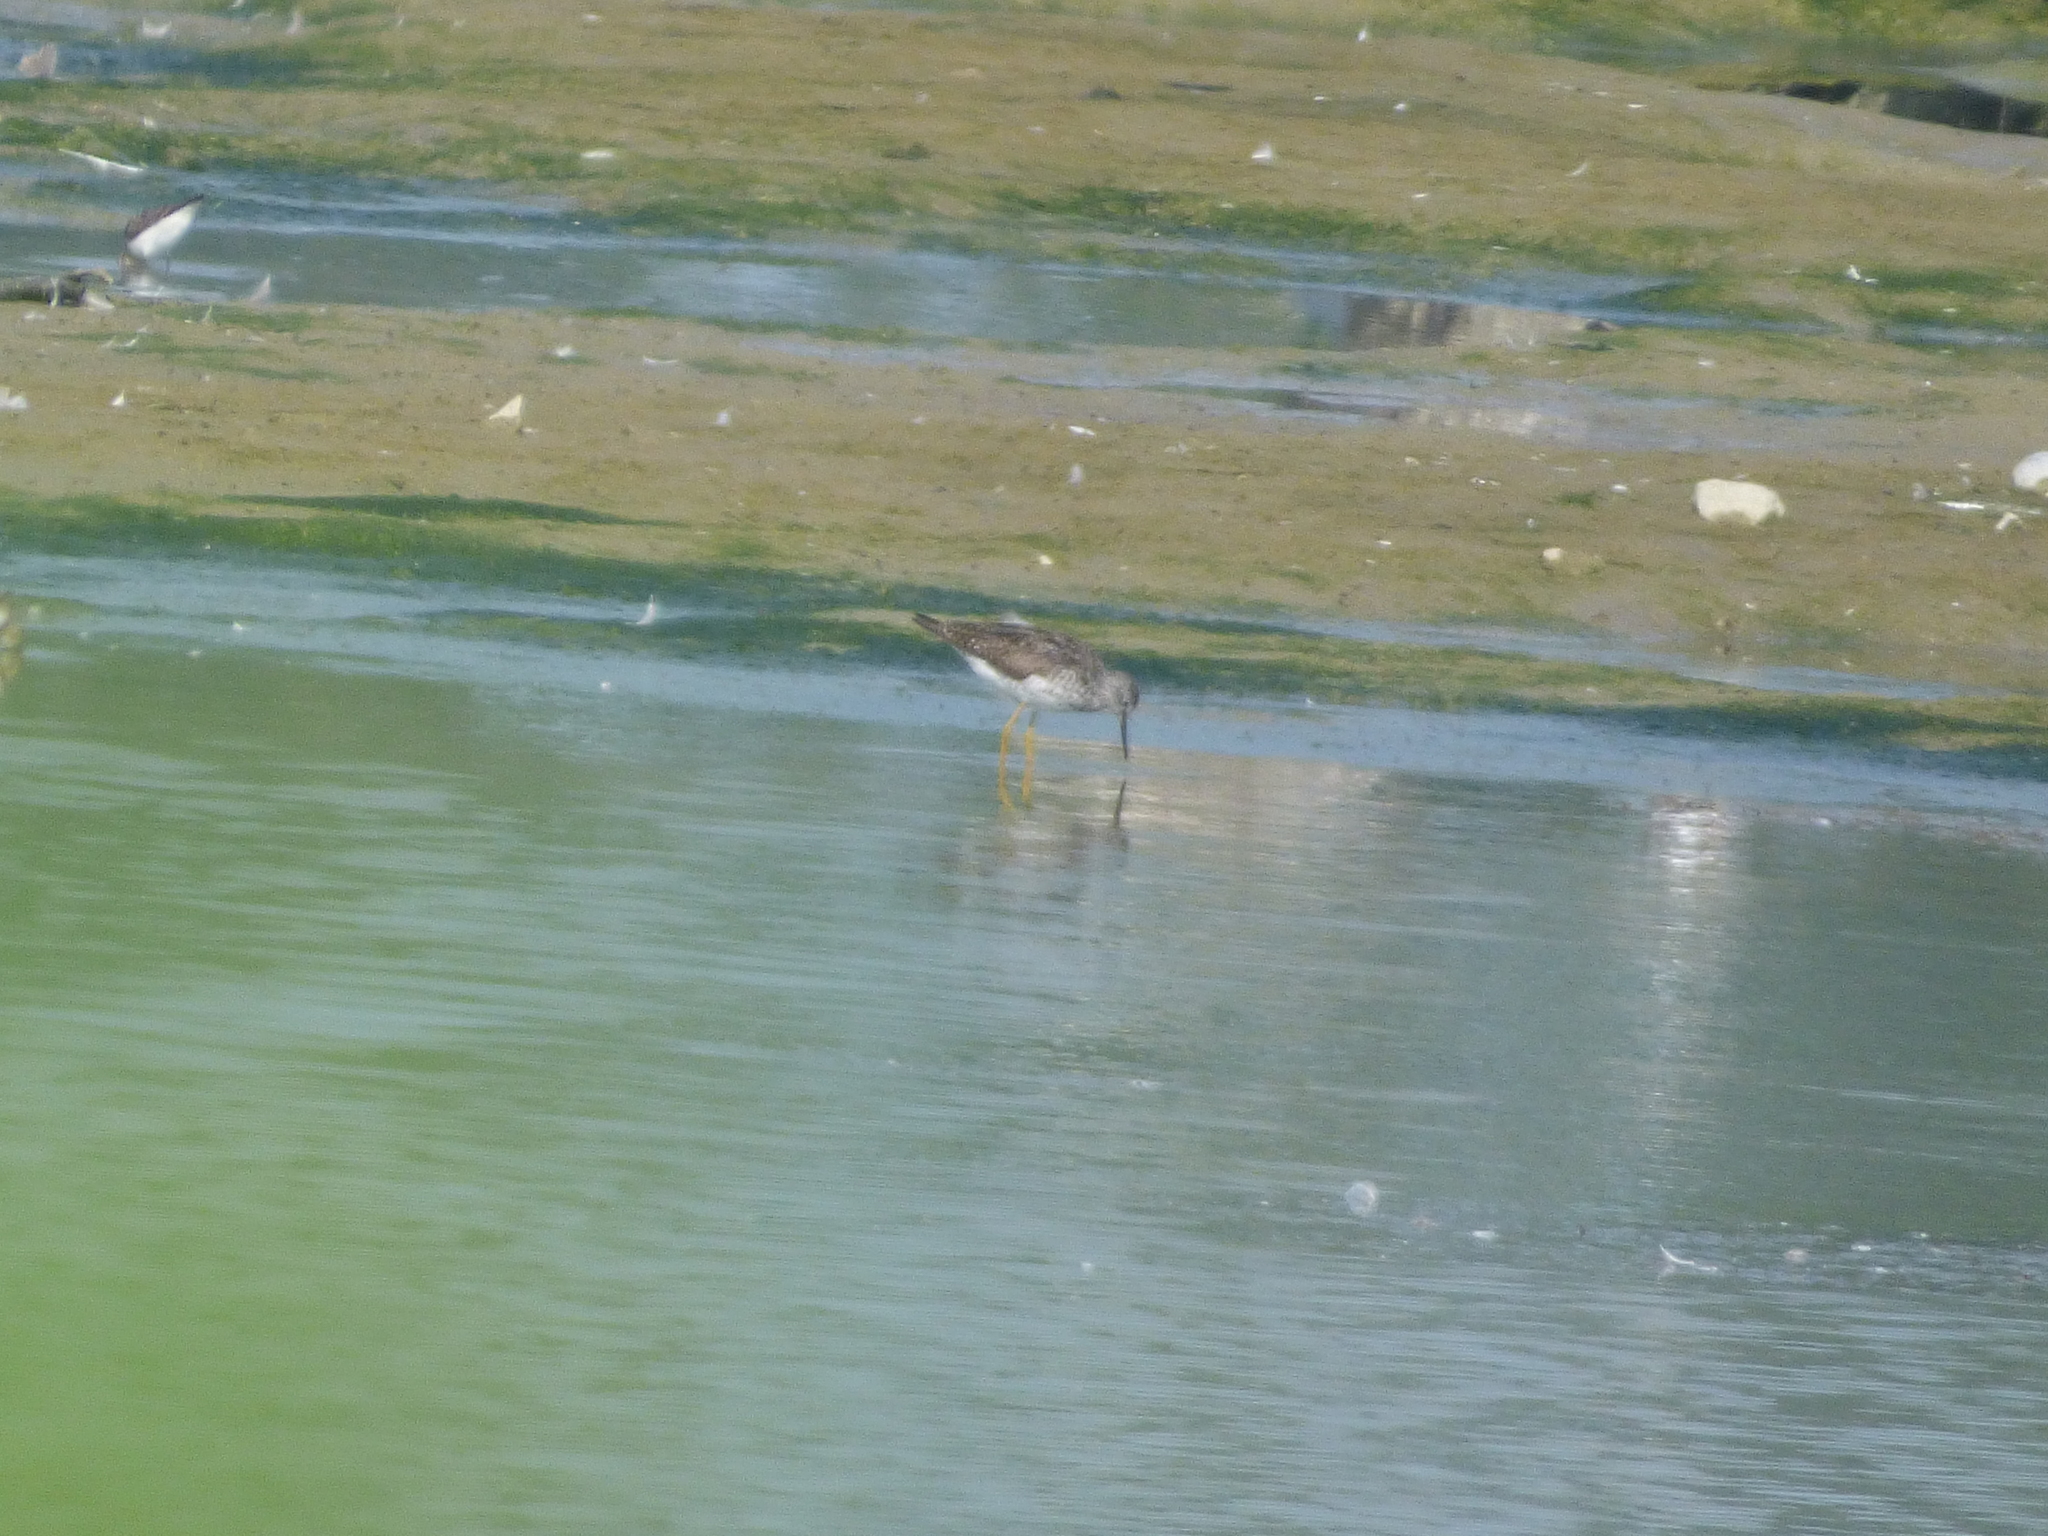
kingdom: Animalia
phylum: Chordata
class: Aves
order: Charadriiformes
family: Scolopacidae
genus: Tringa
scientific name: Tringa flavipes
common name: Lesser yellowlegs
